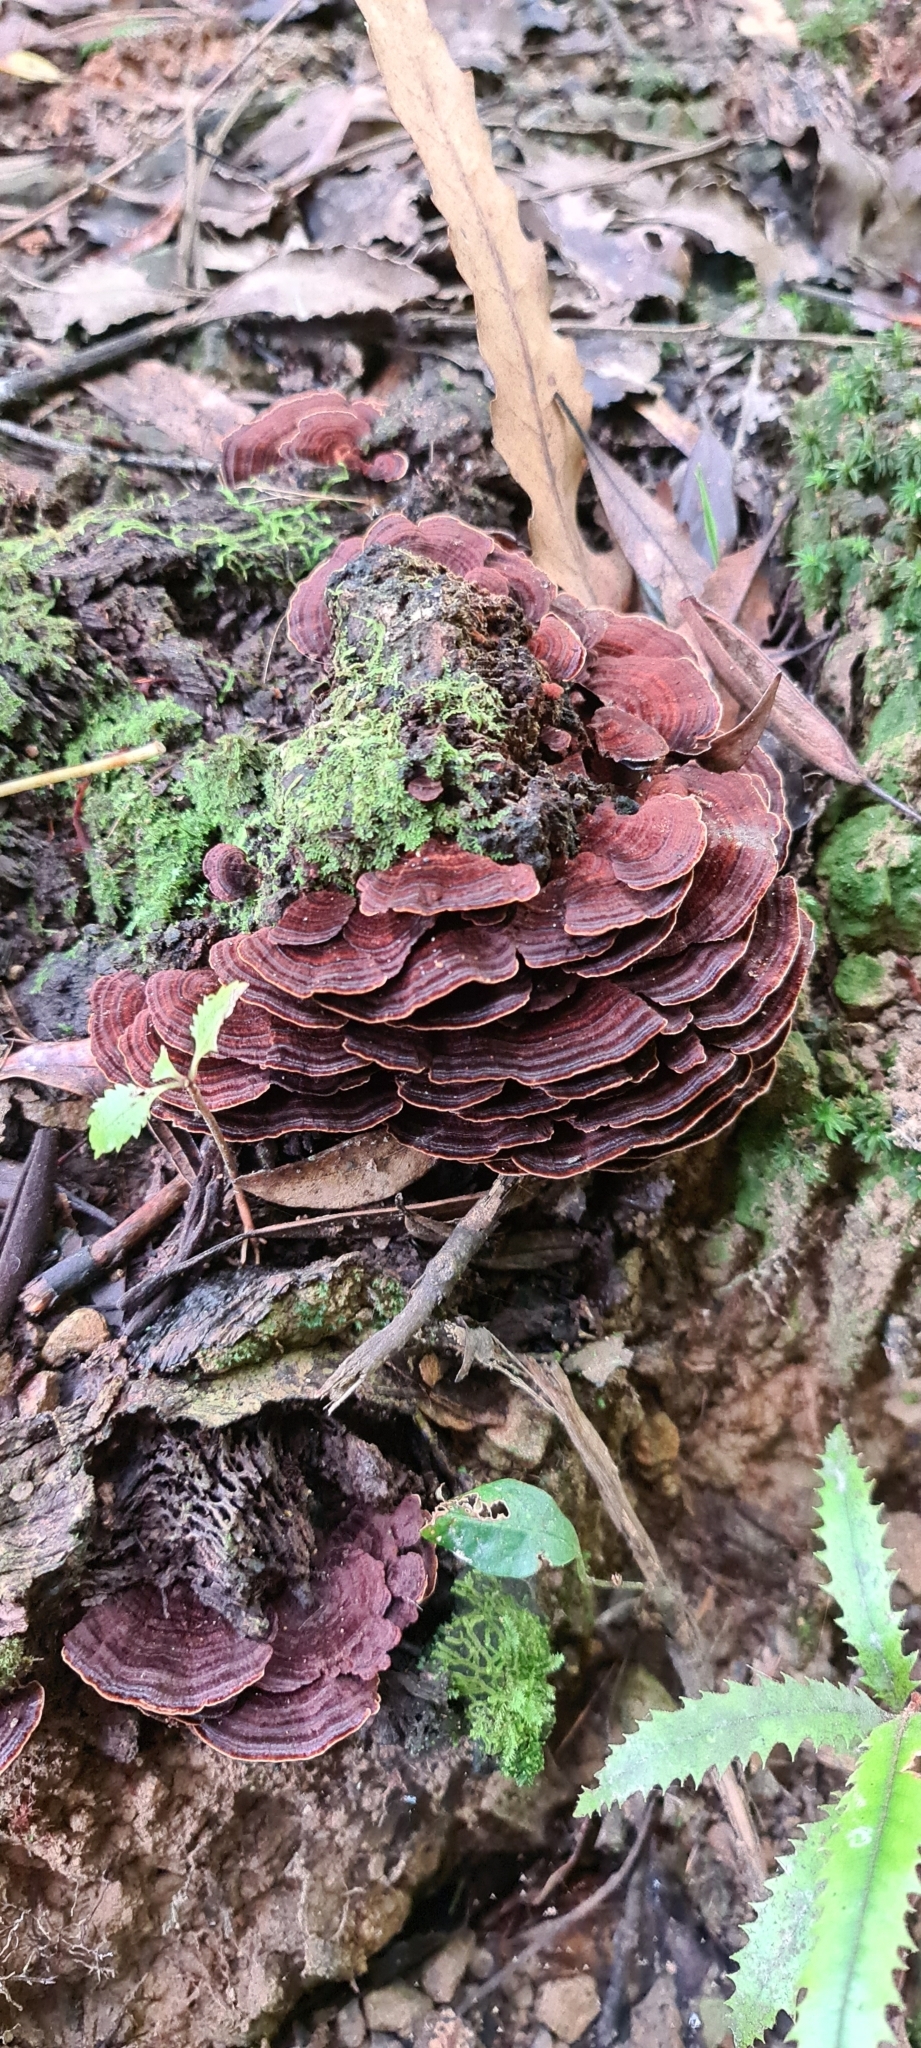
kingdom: Fungi
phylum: Basidiomycota
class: Agaricomycetes
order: Hymenochaetales
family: Hymenochaetaceae
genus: Hymenochaete
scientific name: Hymenochaete microcycla
